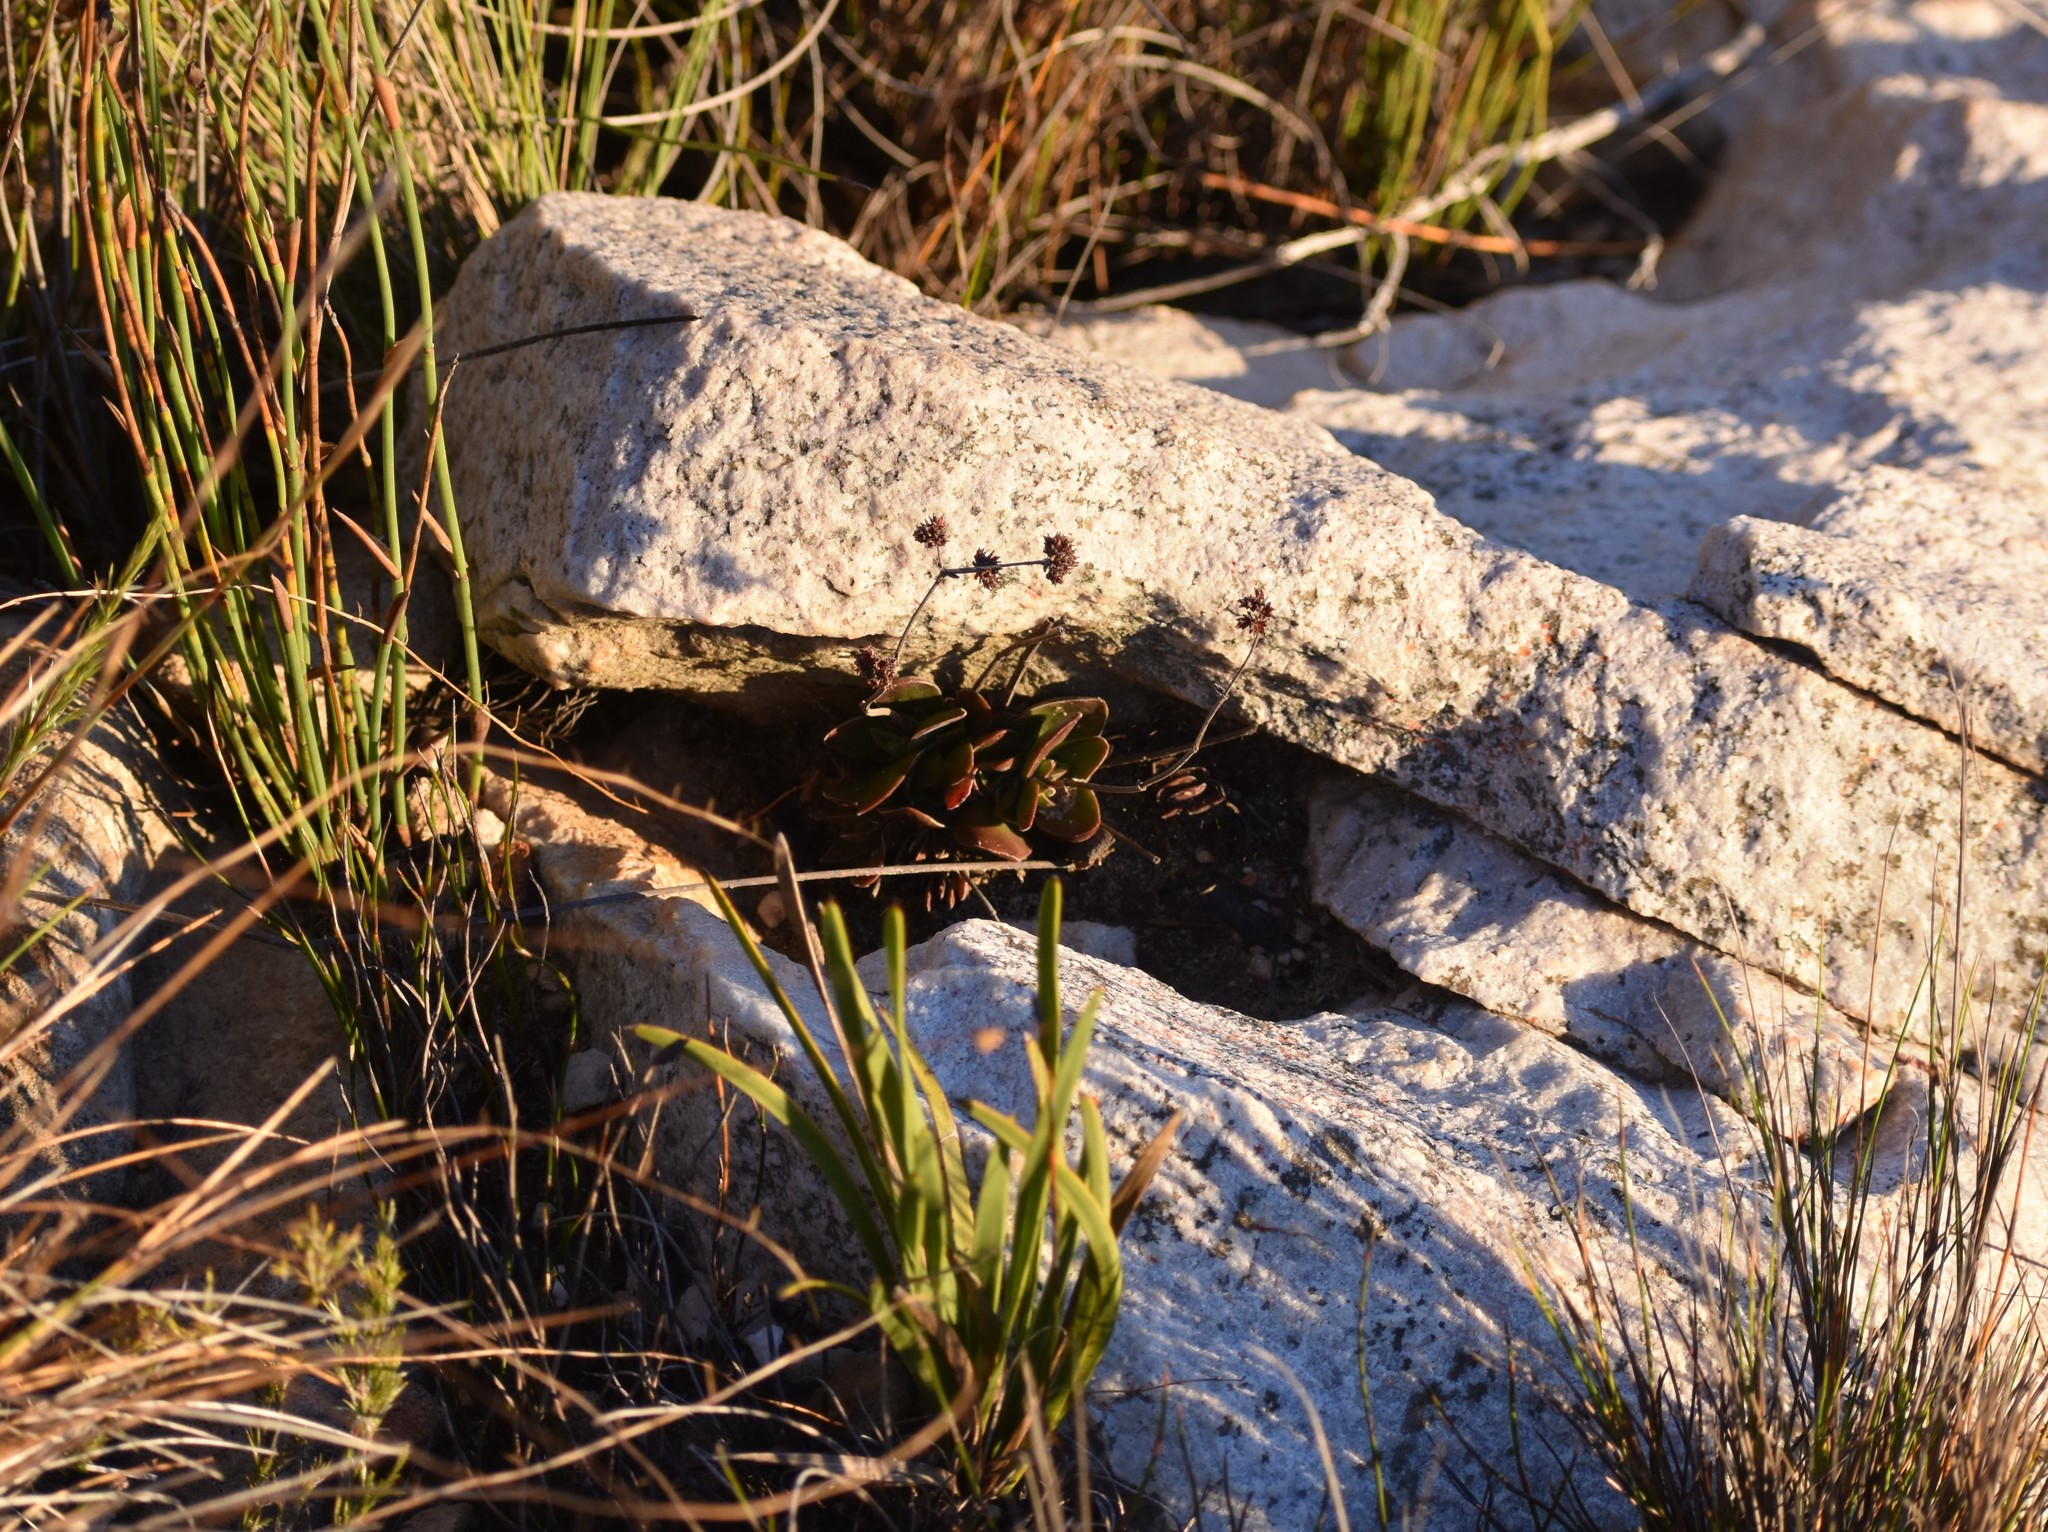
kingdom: Plantae
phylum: Tracheophyta
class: Magnoliopsida
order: Saxifragales
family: Crassulaceae
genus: Crassula
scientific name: Crassula nudicaulis
